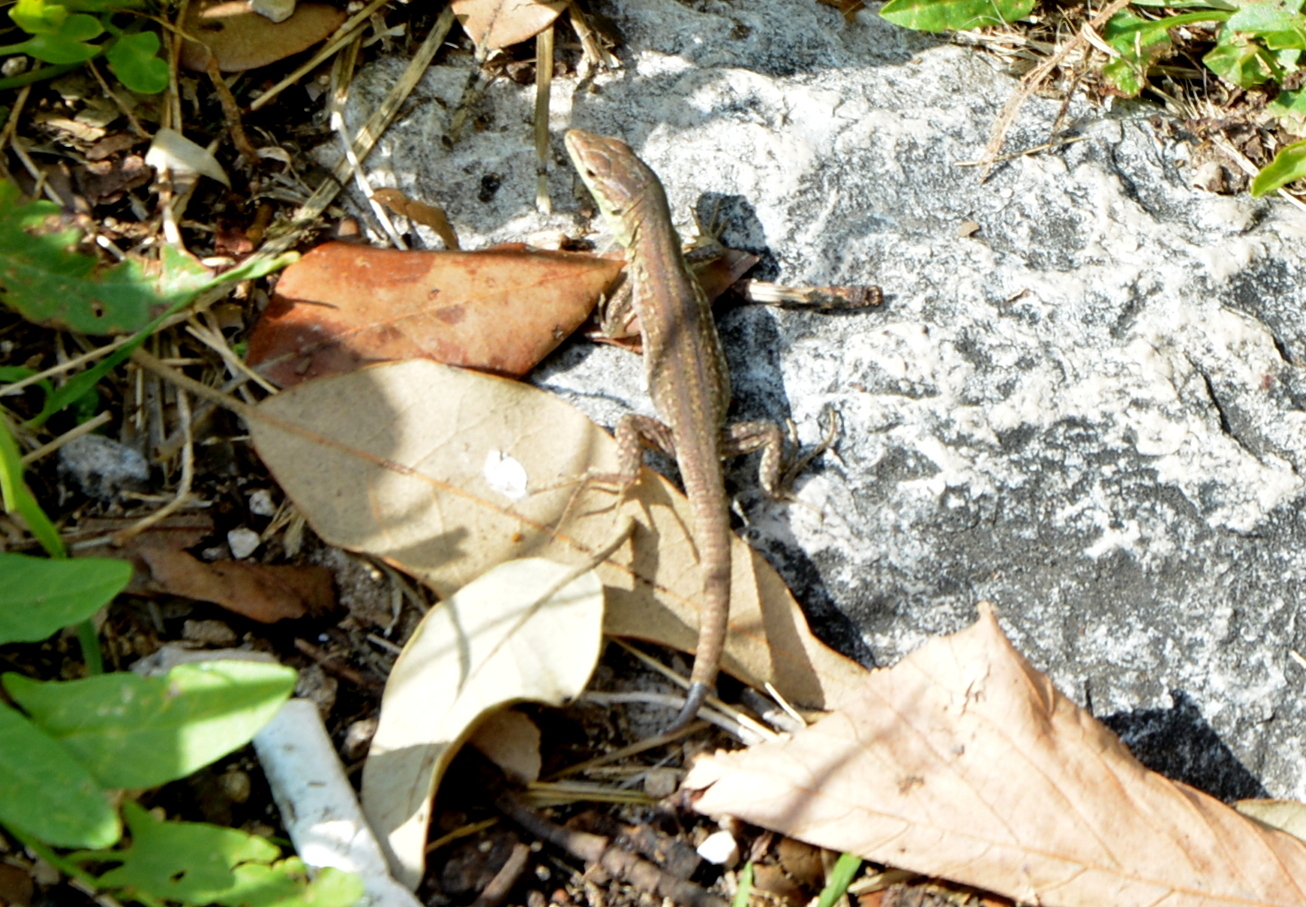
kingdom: Animalia
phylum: Chordata
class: Squamata
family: Lacertidae
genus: Podarcis
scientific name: Podarcis siculus
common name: Italian wall lizard
